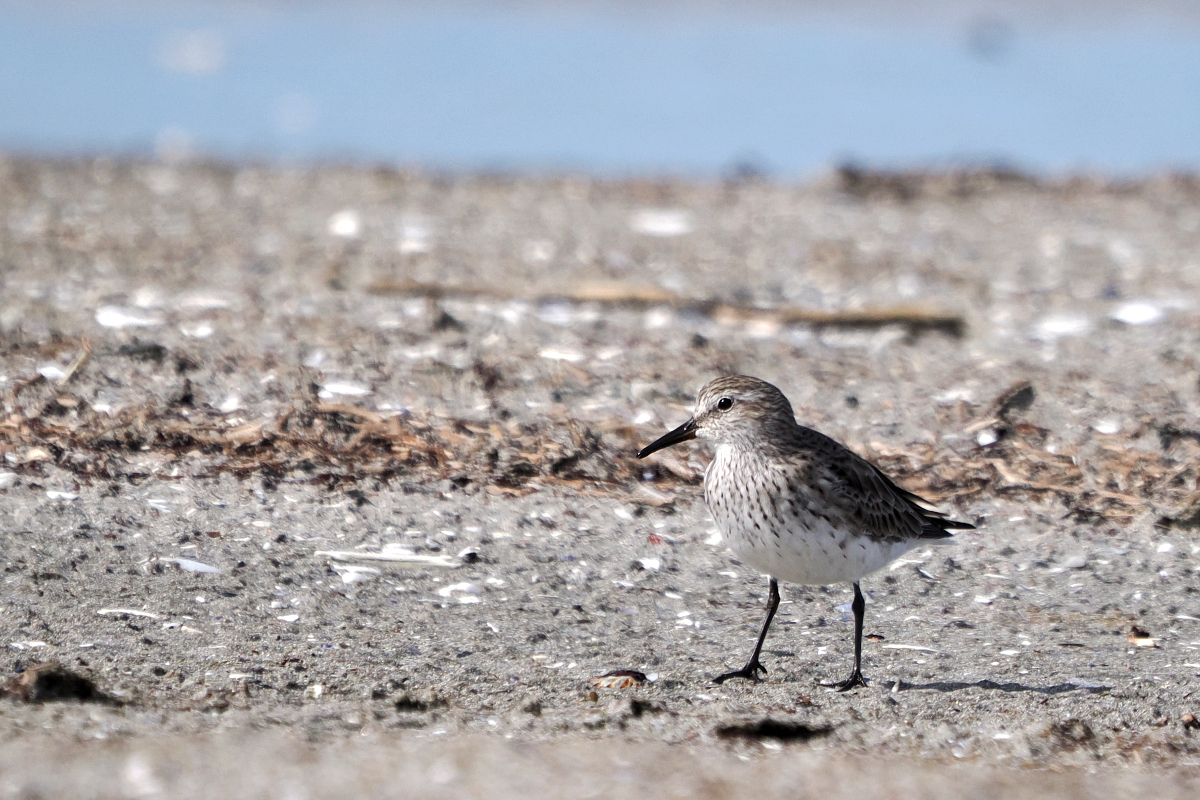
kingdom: Animalia
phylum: Chordata
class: Aves
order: Charadriiformes
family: Scolopacidae
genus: Calidris
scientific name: Calidris fuscicollis
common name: White-rumped sandpiper
